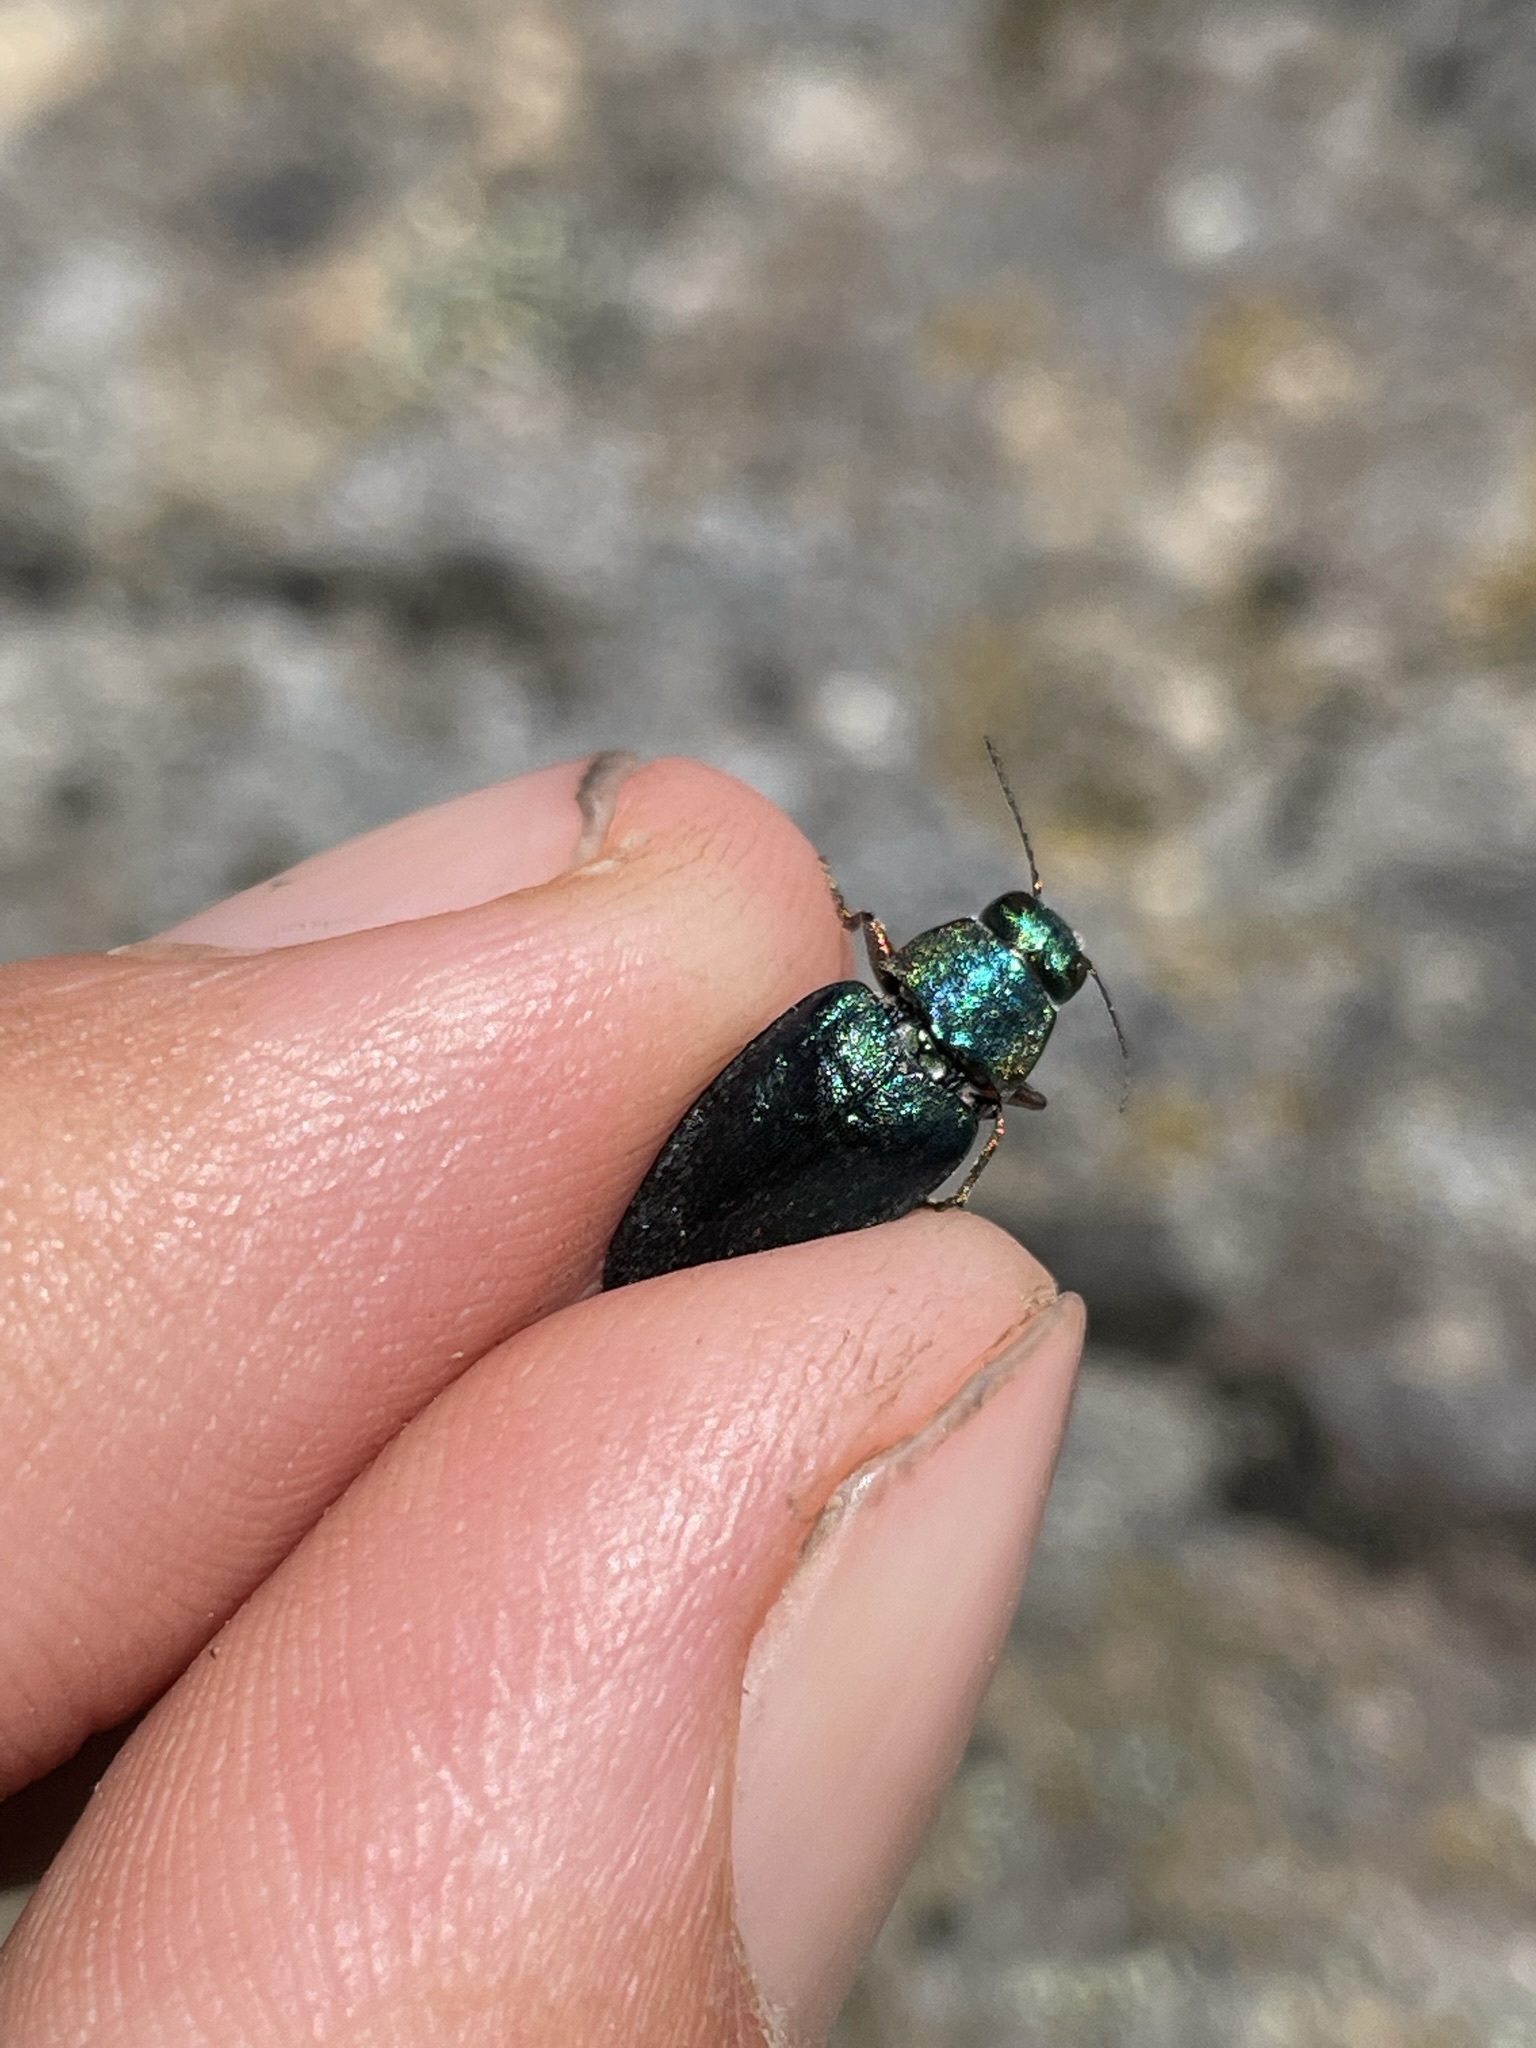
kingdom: Animalia
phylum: Arthropoda
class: Insecta
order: Coleoptera
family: Buprestidae
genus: Phaenops
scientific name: Phaenops gentilis
